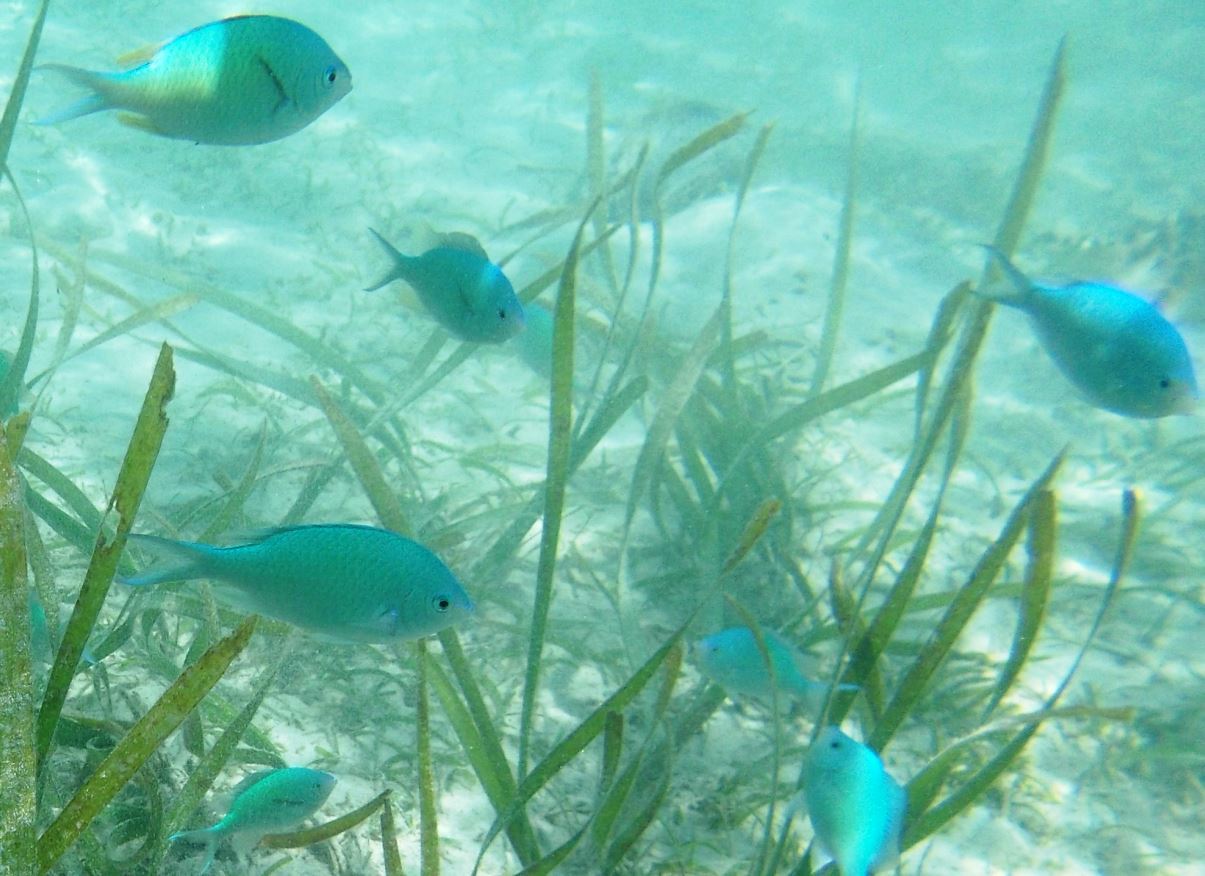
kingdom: Animalia
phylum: Chordata
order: Perciformes
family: Pomacentridae
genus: Chromis
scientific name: Chromis viridis
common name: Blue-green chromis
